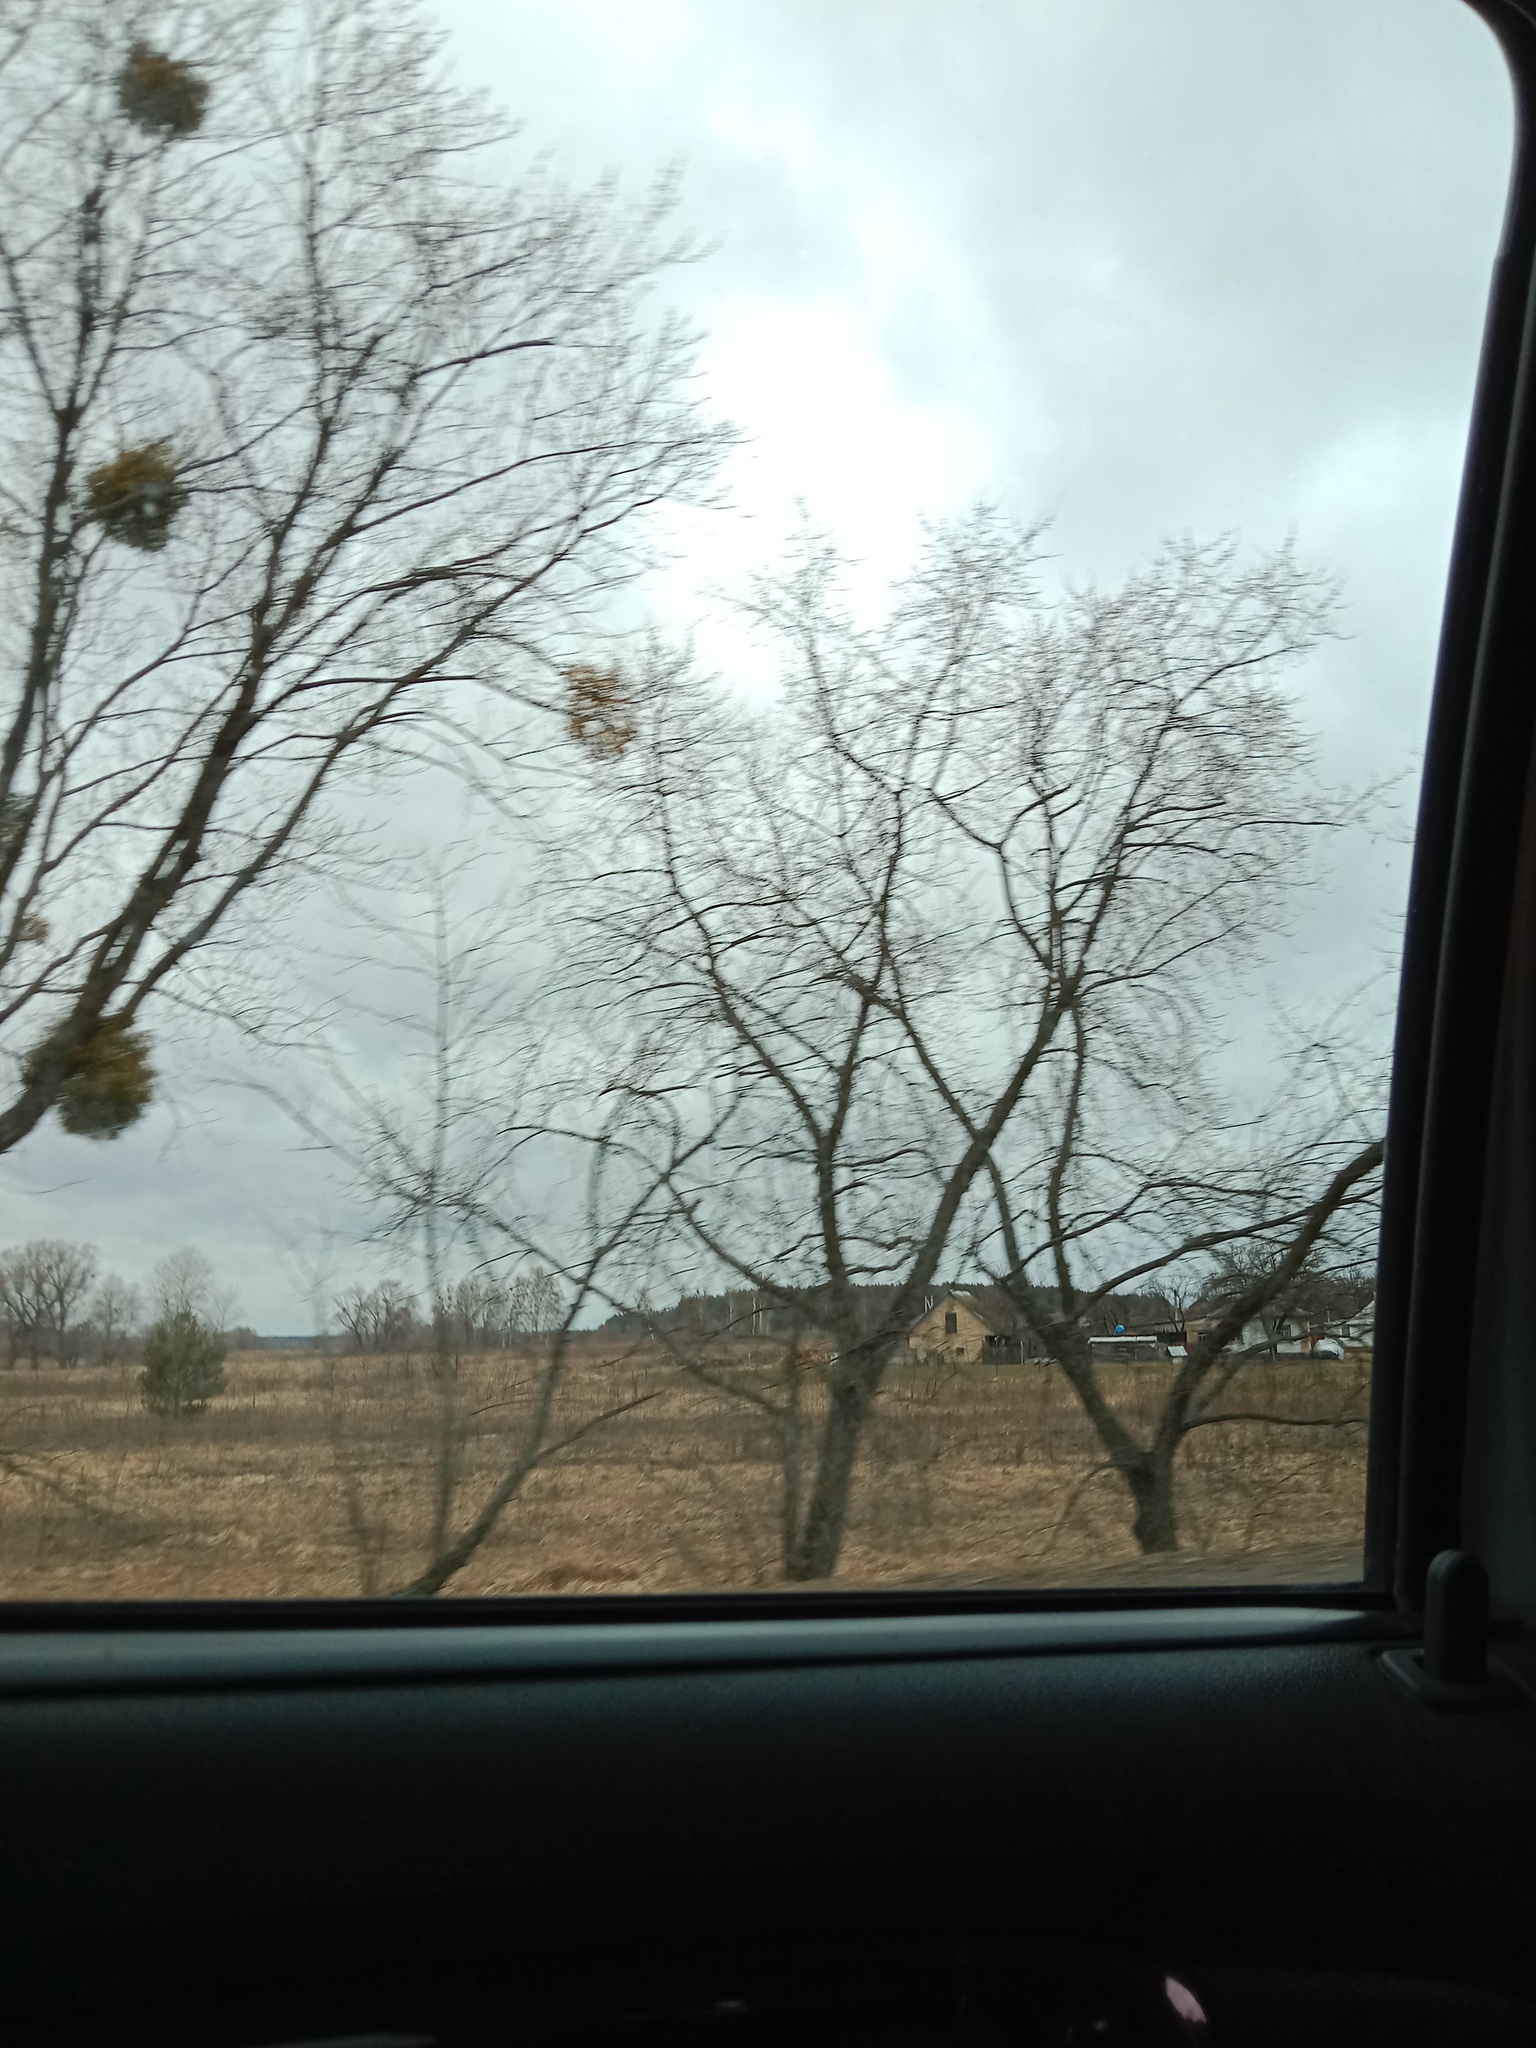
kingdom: Plantae
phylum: Tracheophyta
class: Magnoliopsida
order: Santalales
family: Viscaceae
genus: Viscum
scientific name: Viscum album
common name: Mistletoe
